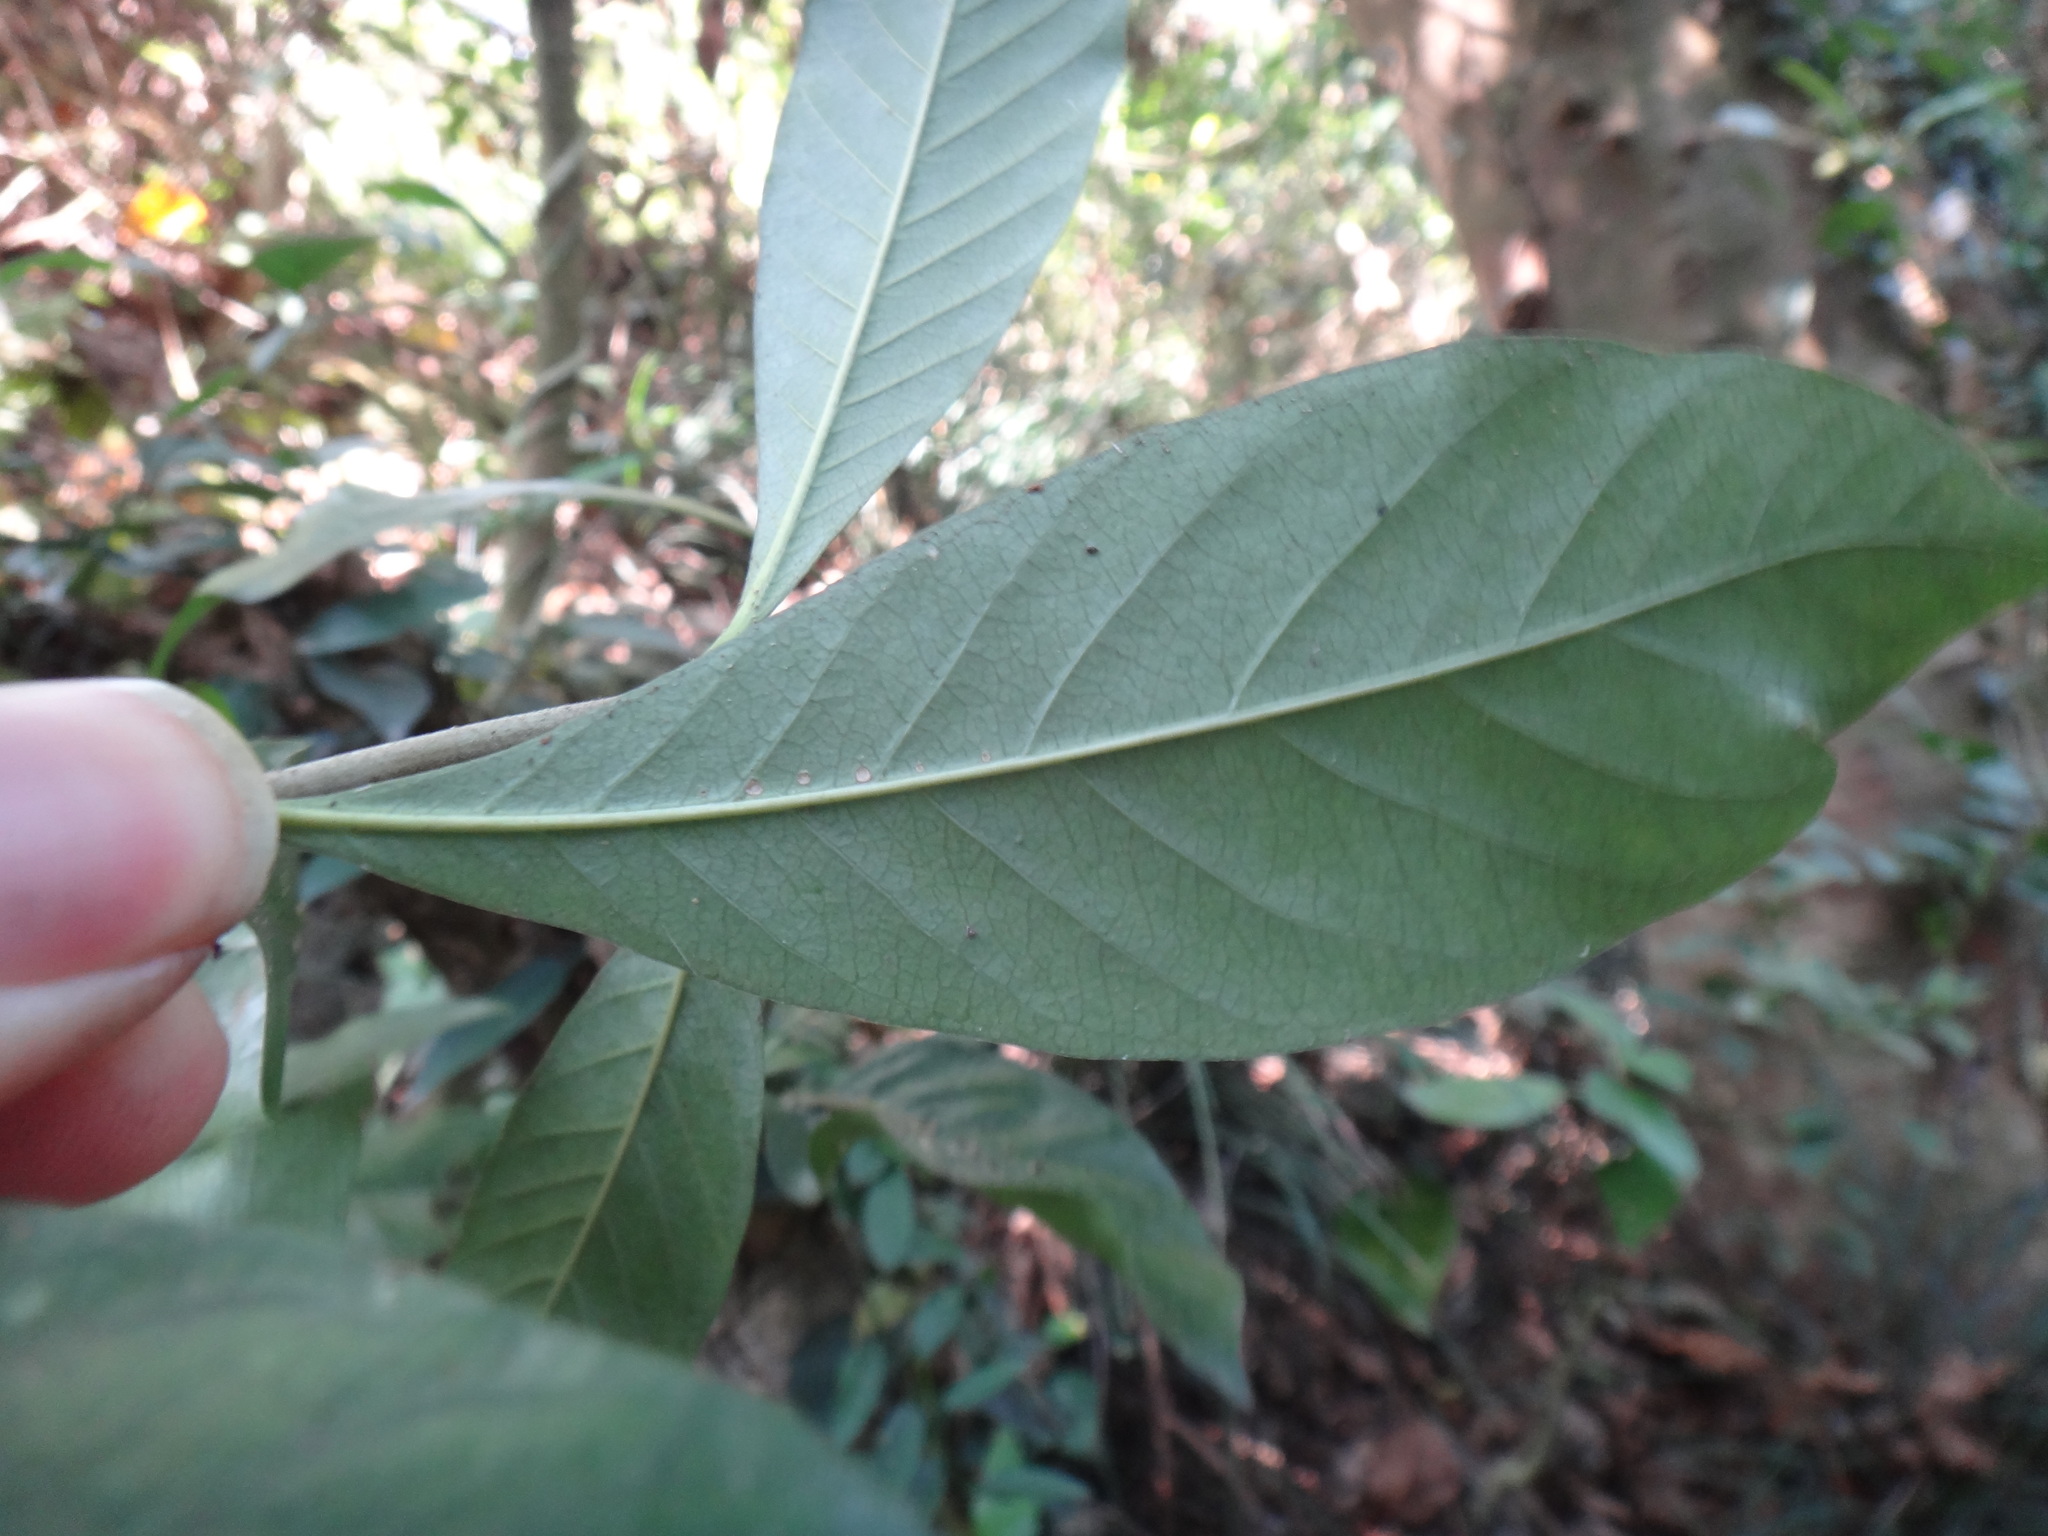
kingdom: Plantae
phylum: Tracheophyta
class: Magnoliopsida
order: Gentianales
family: Rubiaceae
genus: Gardenia
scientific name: Gardenia jasminoides
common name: Cape-jasmine
